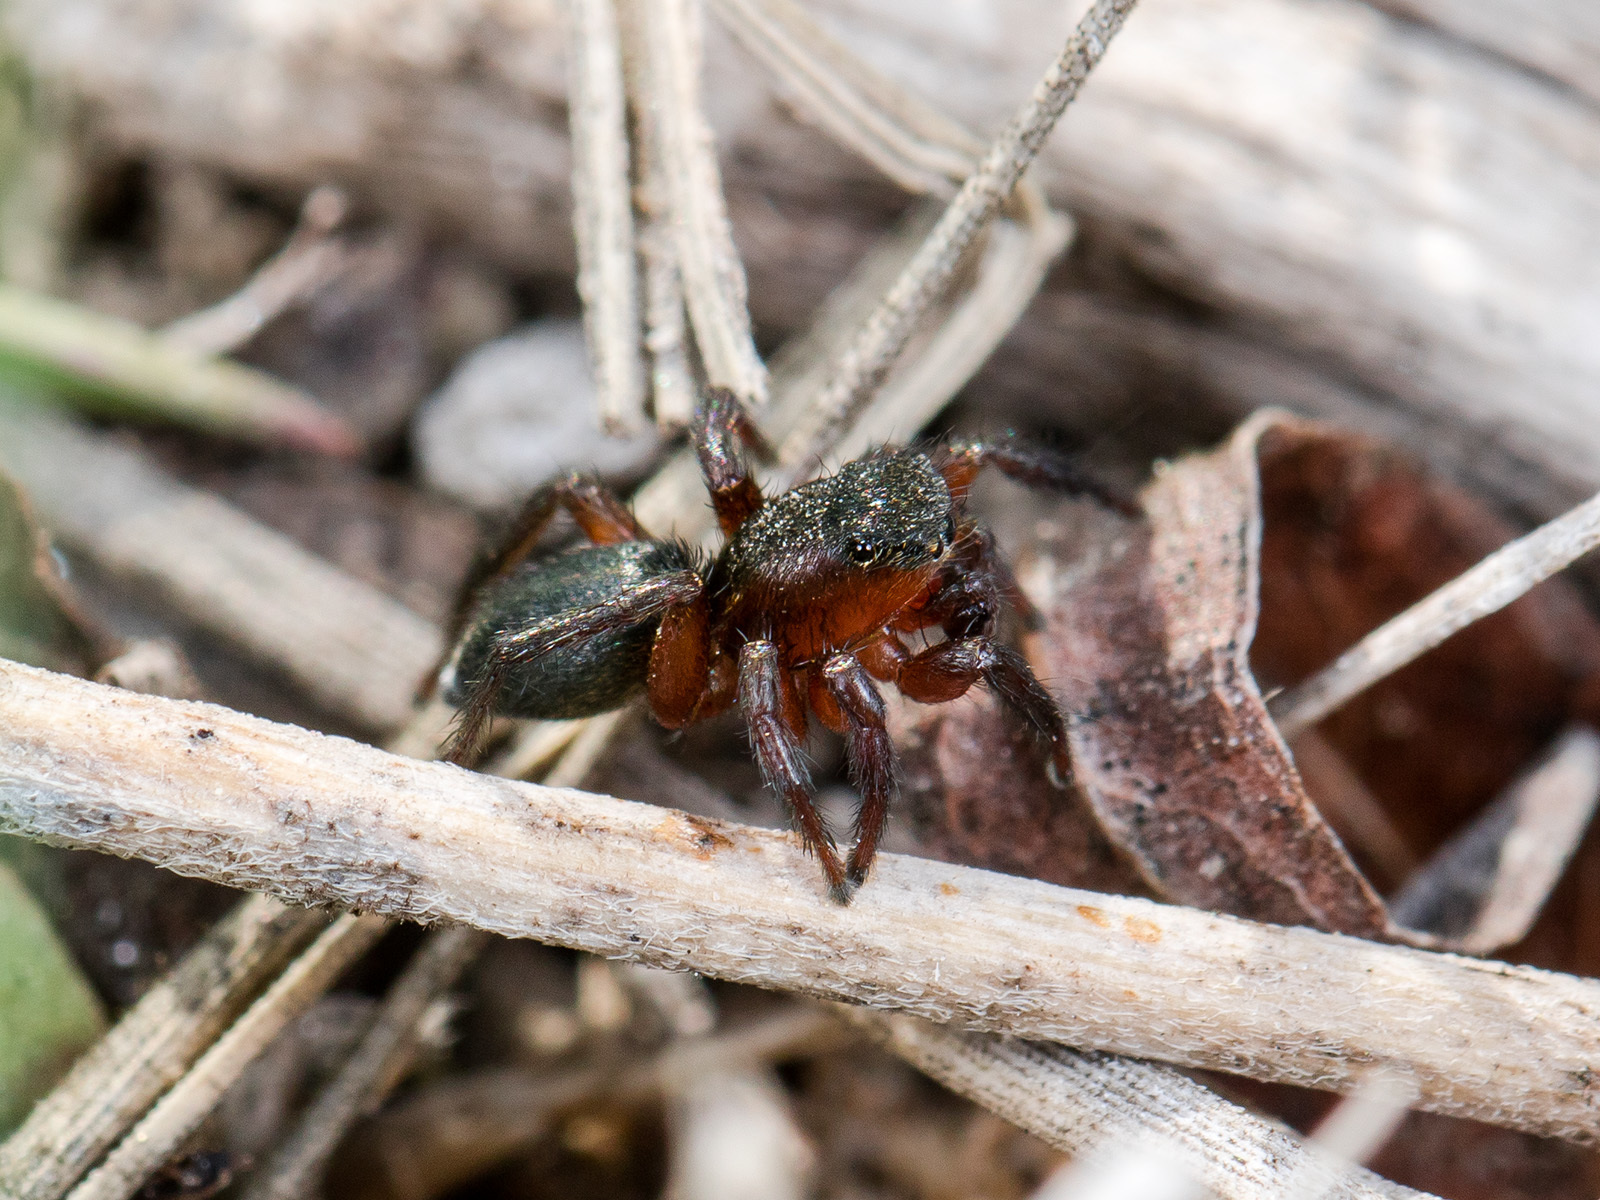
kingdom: Animalia
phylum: Arthropoda
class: Arachnida
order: Araneae
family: Salticidae
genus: Phlegra
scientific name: Phlegra fasciata
